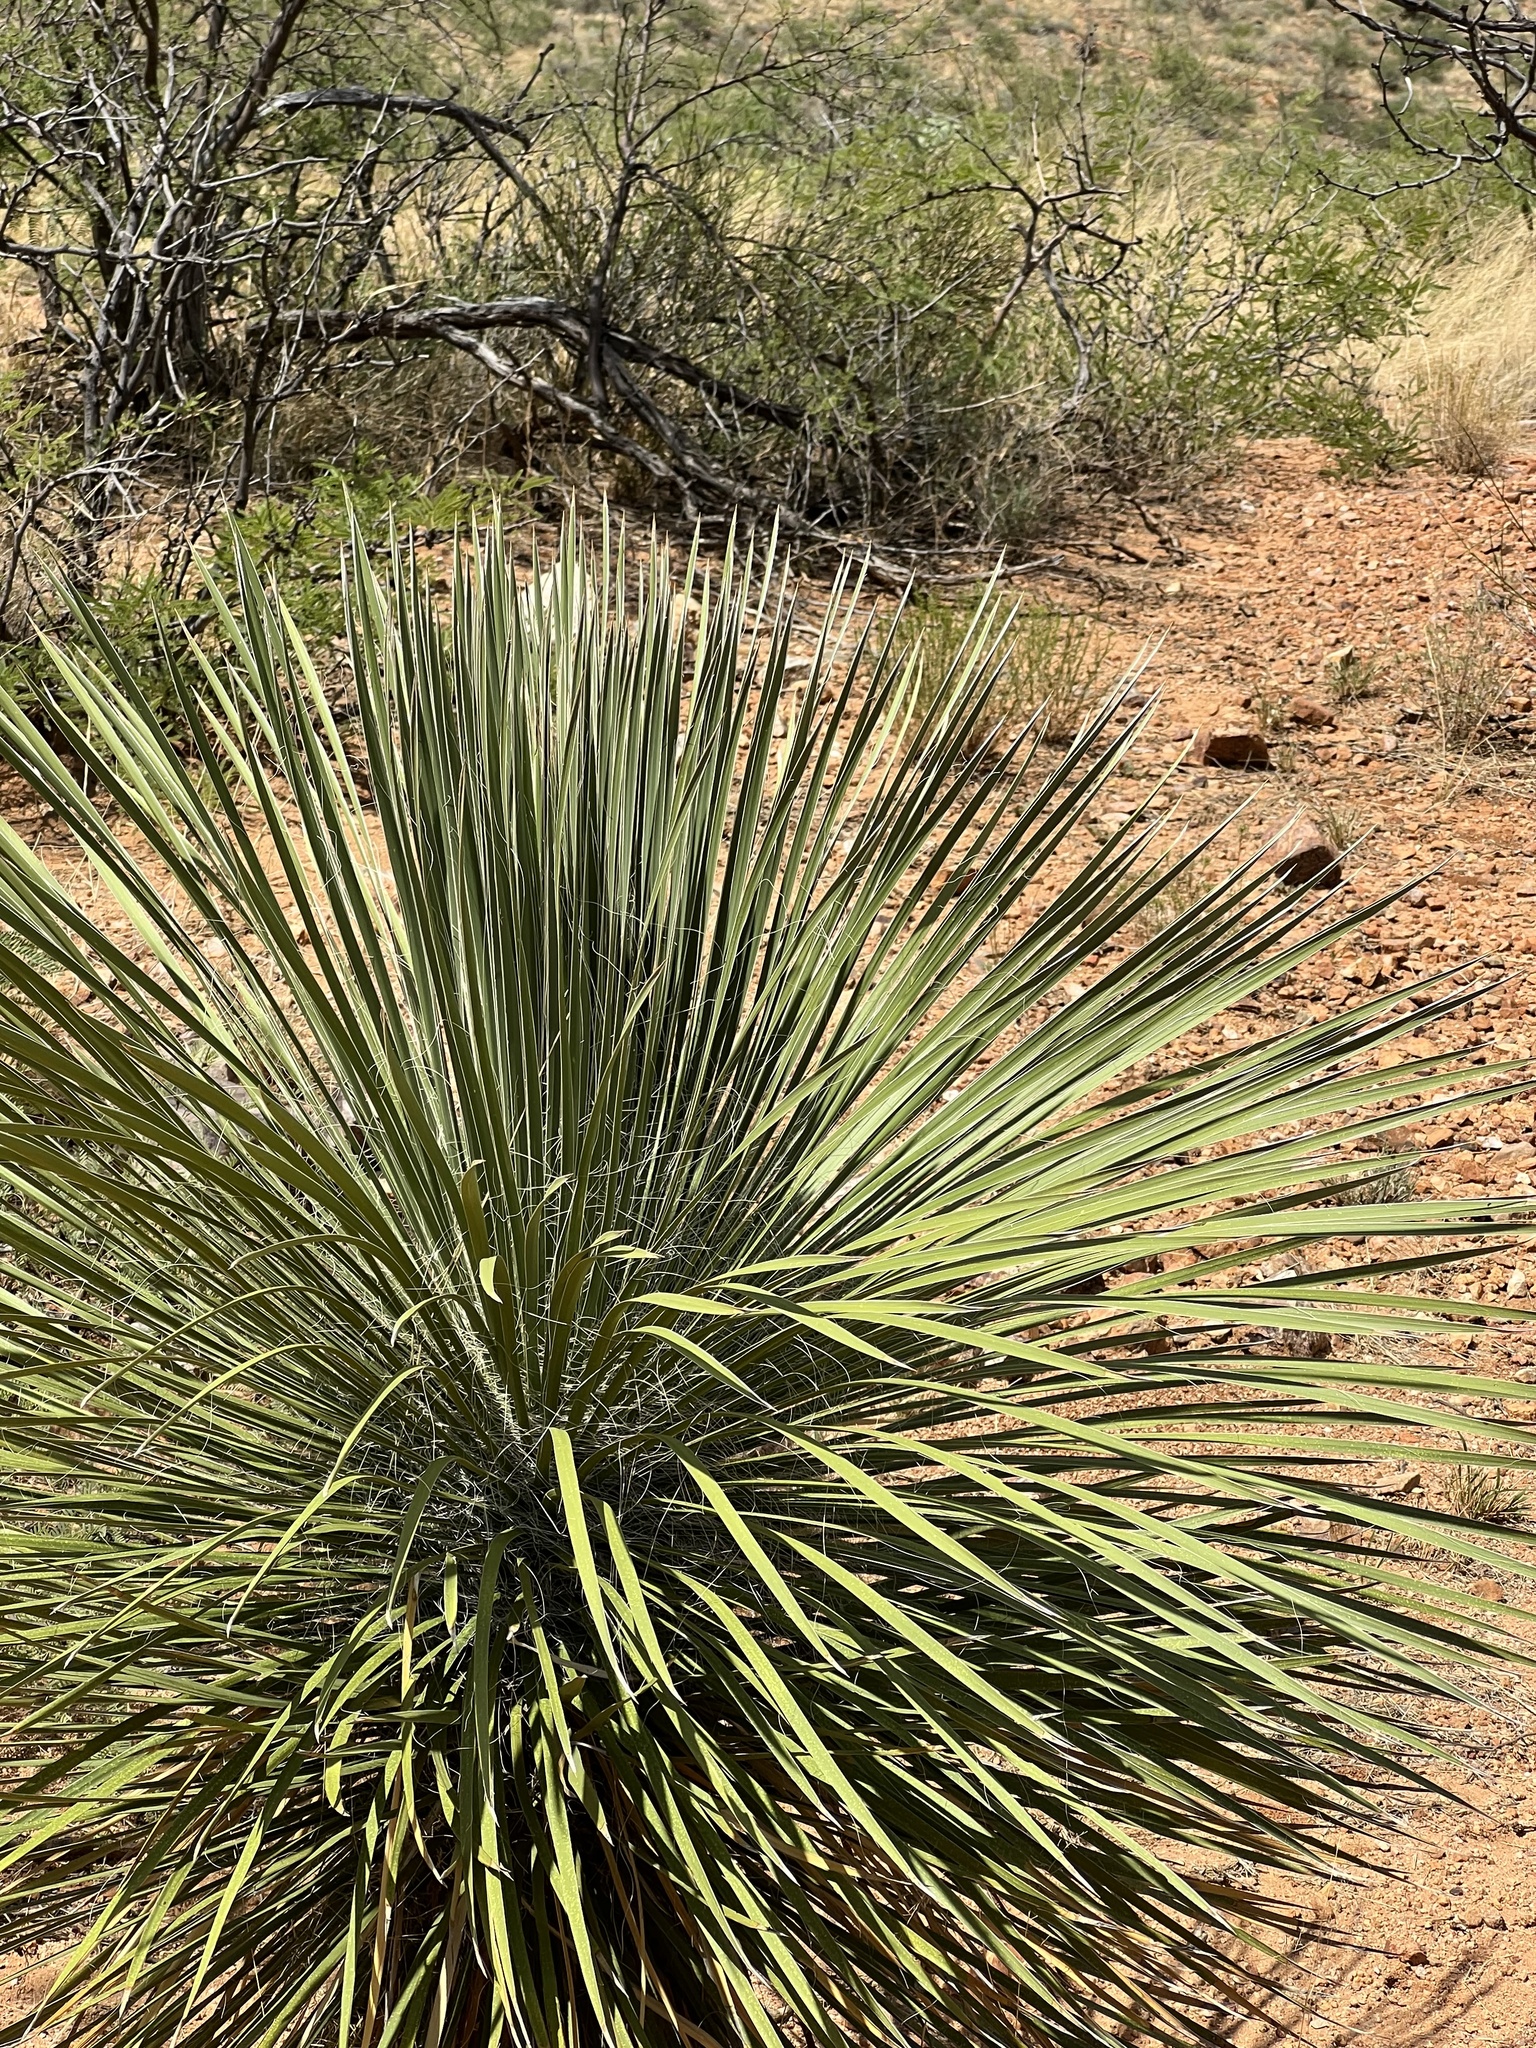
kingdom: Plantae
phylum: Tracheophyta
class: Liliopsida
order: Asparagales
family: Asparagaceae
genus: Yucca
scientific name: Yucca elata
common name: Palmella
